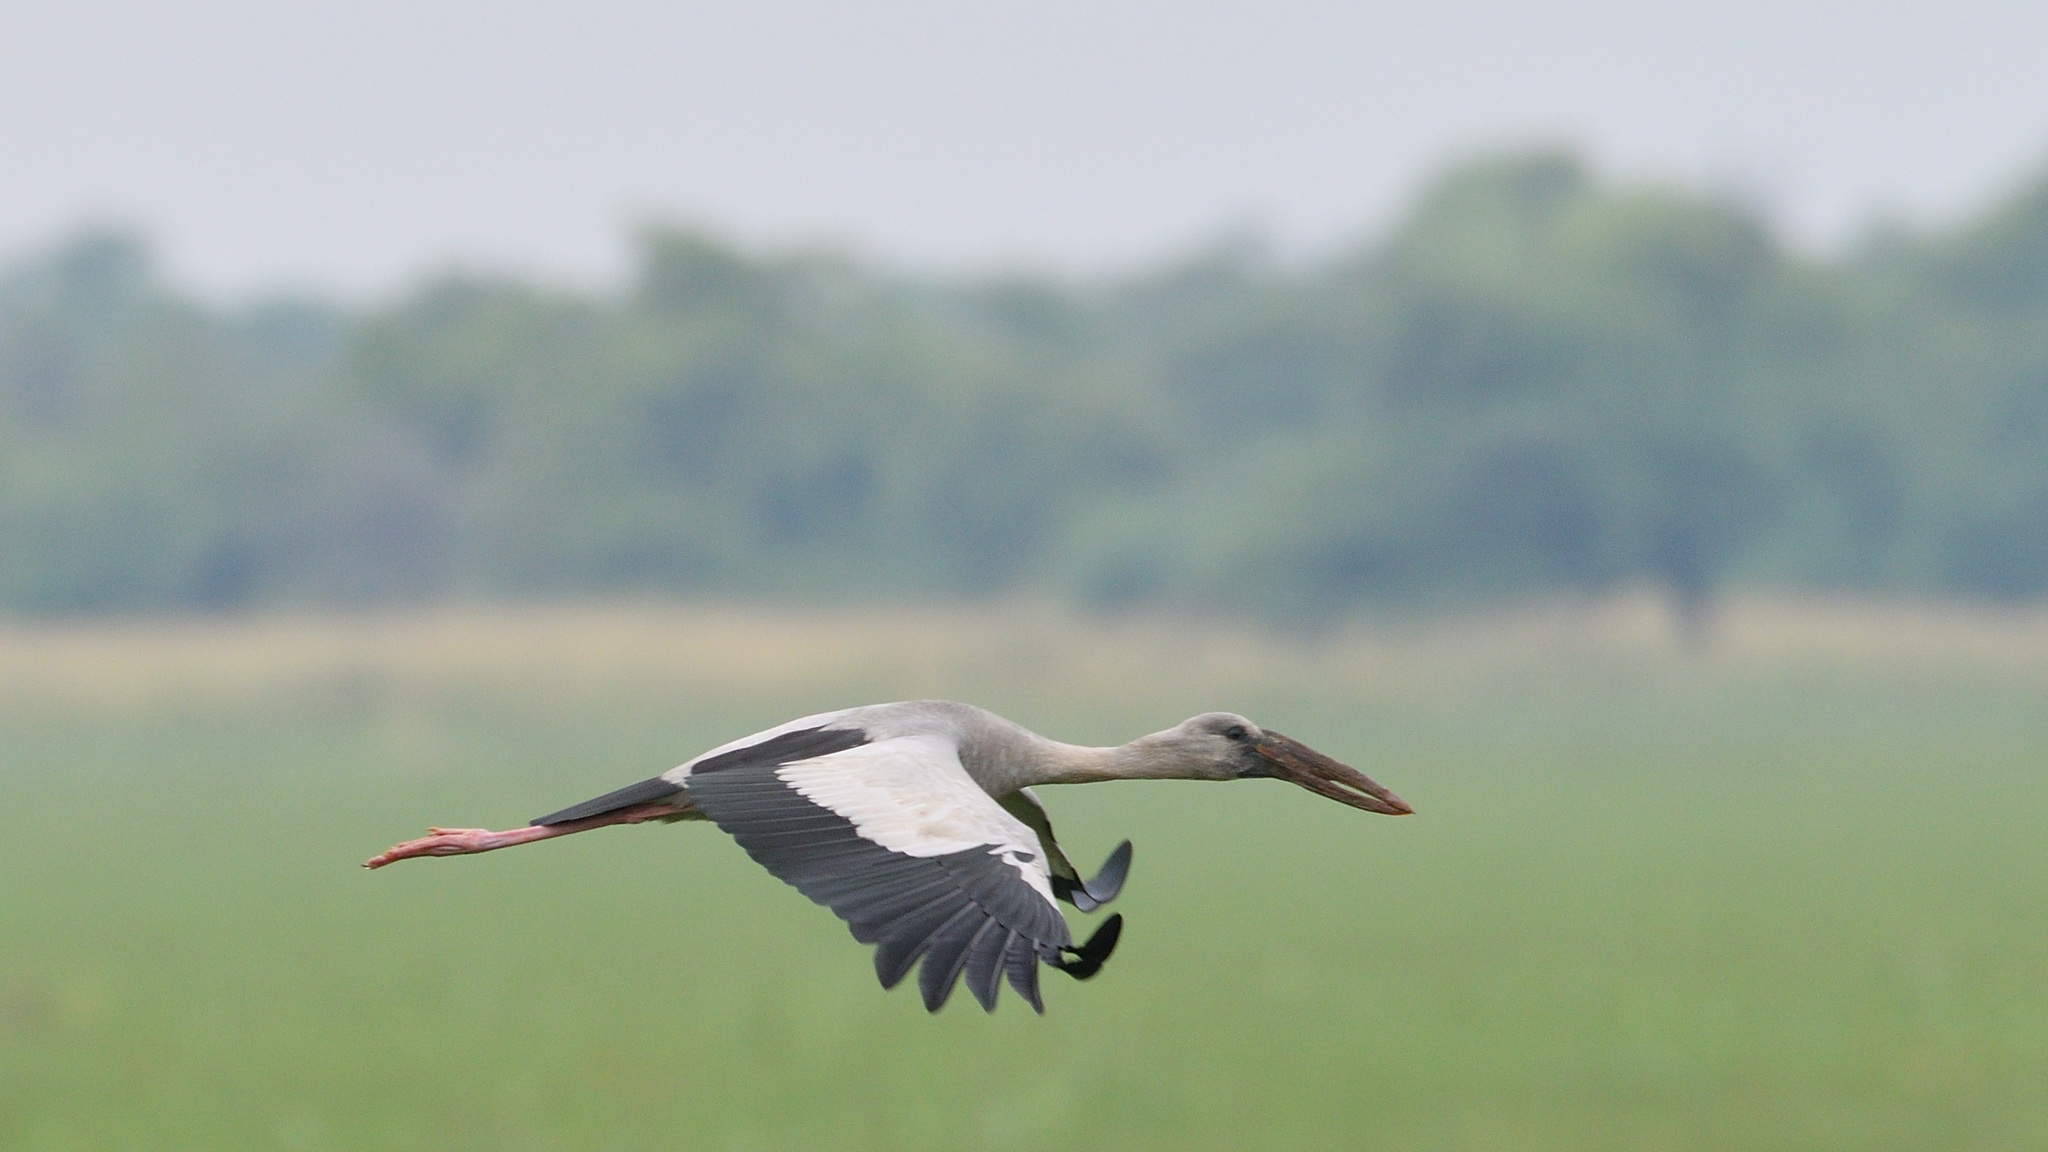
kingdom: Animalia
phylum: Chordata
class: Aves
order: Ciconiiformes
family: Ciconiidae
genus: Anastomus
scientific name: Anastomus oscitans
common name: Asian openbill
